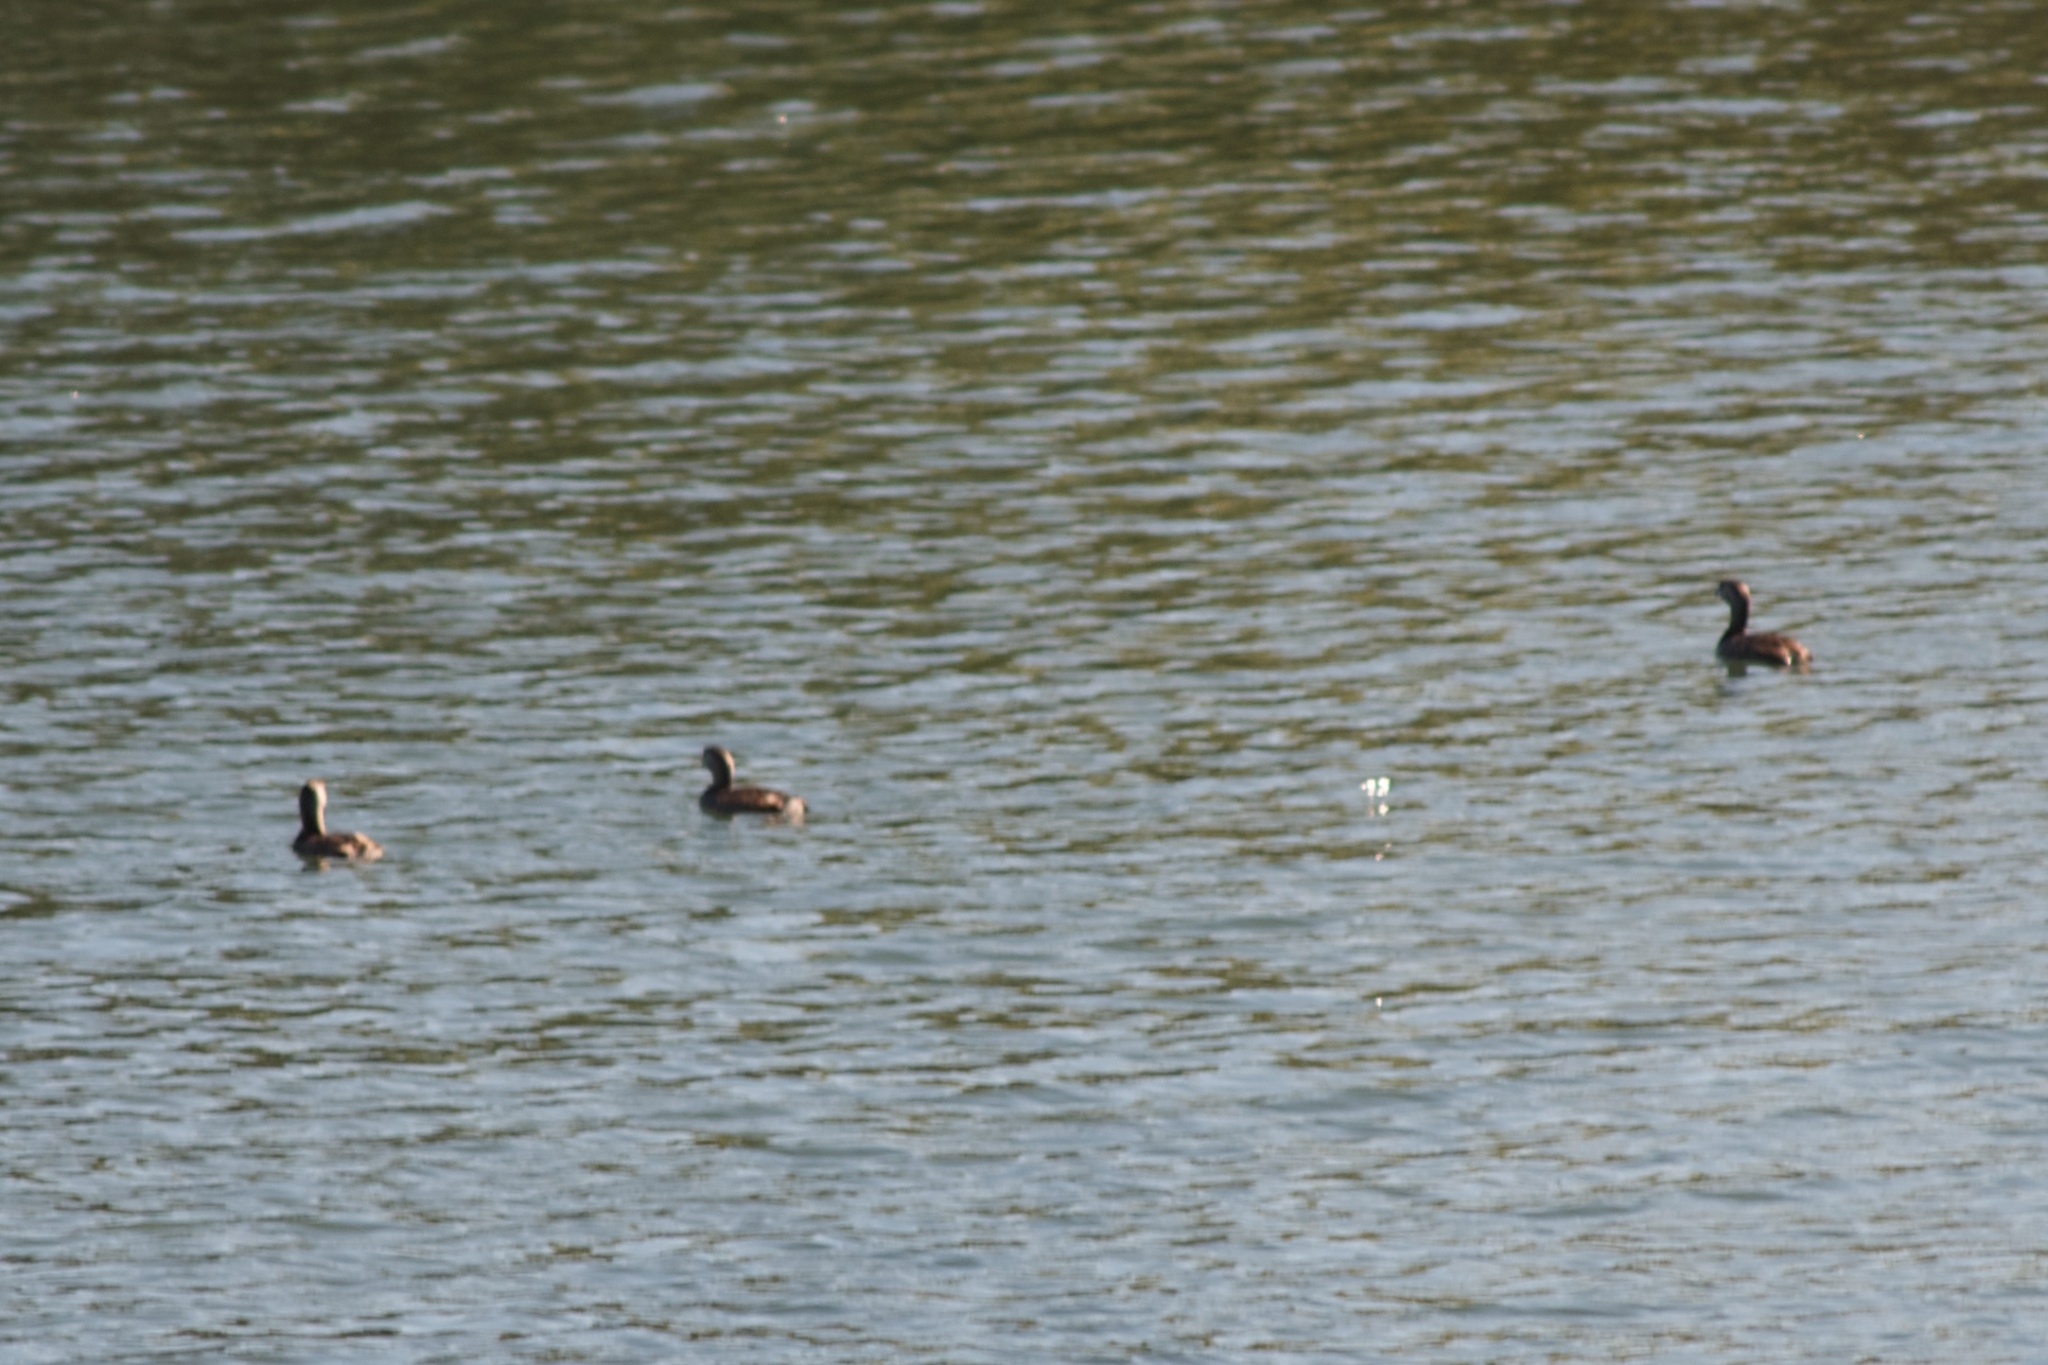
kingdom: Animalia
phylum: Chordata
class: Aves
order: Podicipediformes
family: Podicipedidae
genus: Podilymbus
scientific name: Podilymbus podiceps
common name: Pied-billed grebe
